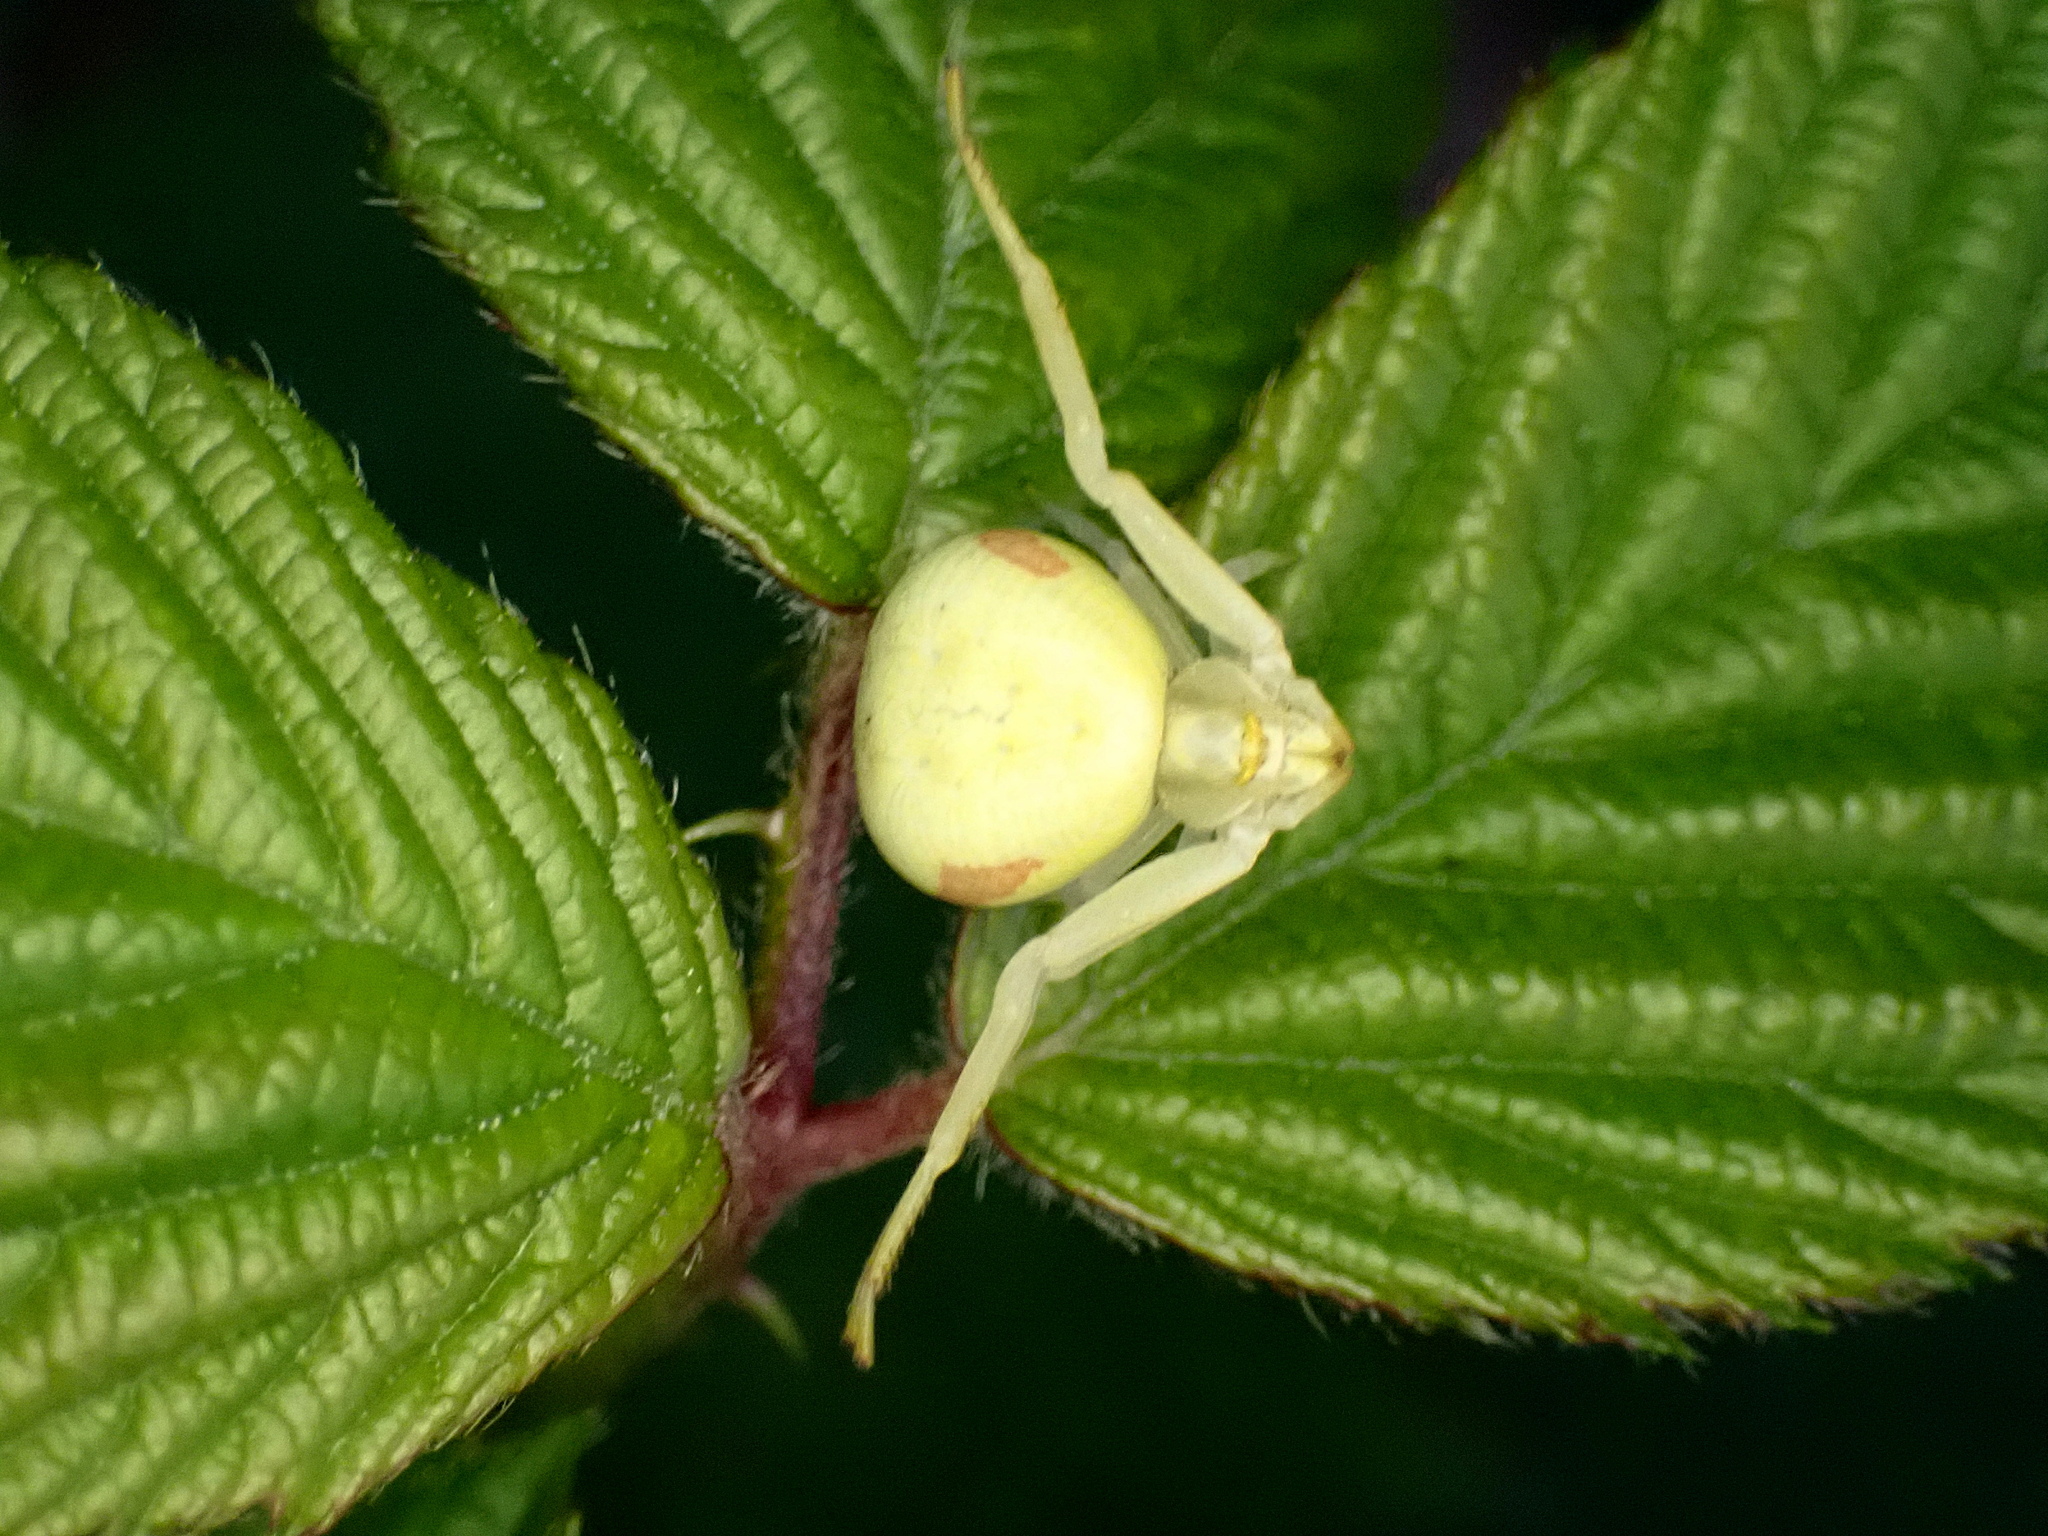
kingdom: Animalia
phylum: Arthropoda
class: Arachnida
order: Araneae
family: Thomisidae
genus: Misumena
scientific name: Misumena vatia
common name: Goldenrod crab spider
